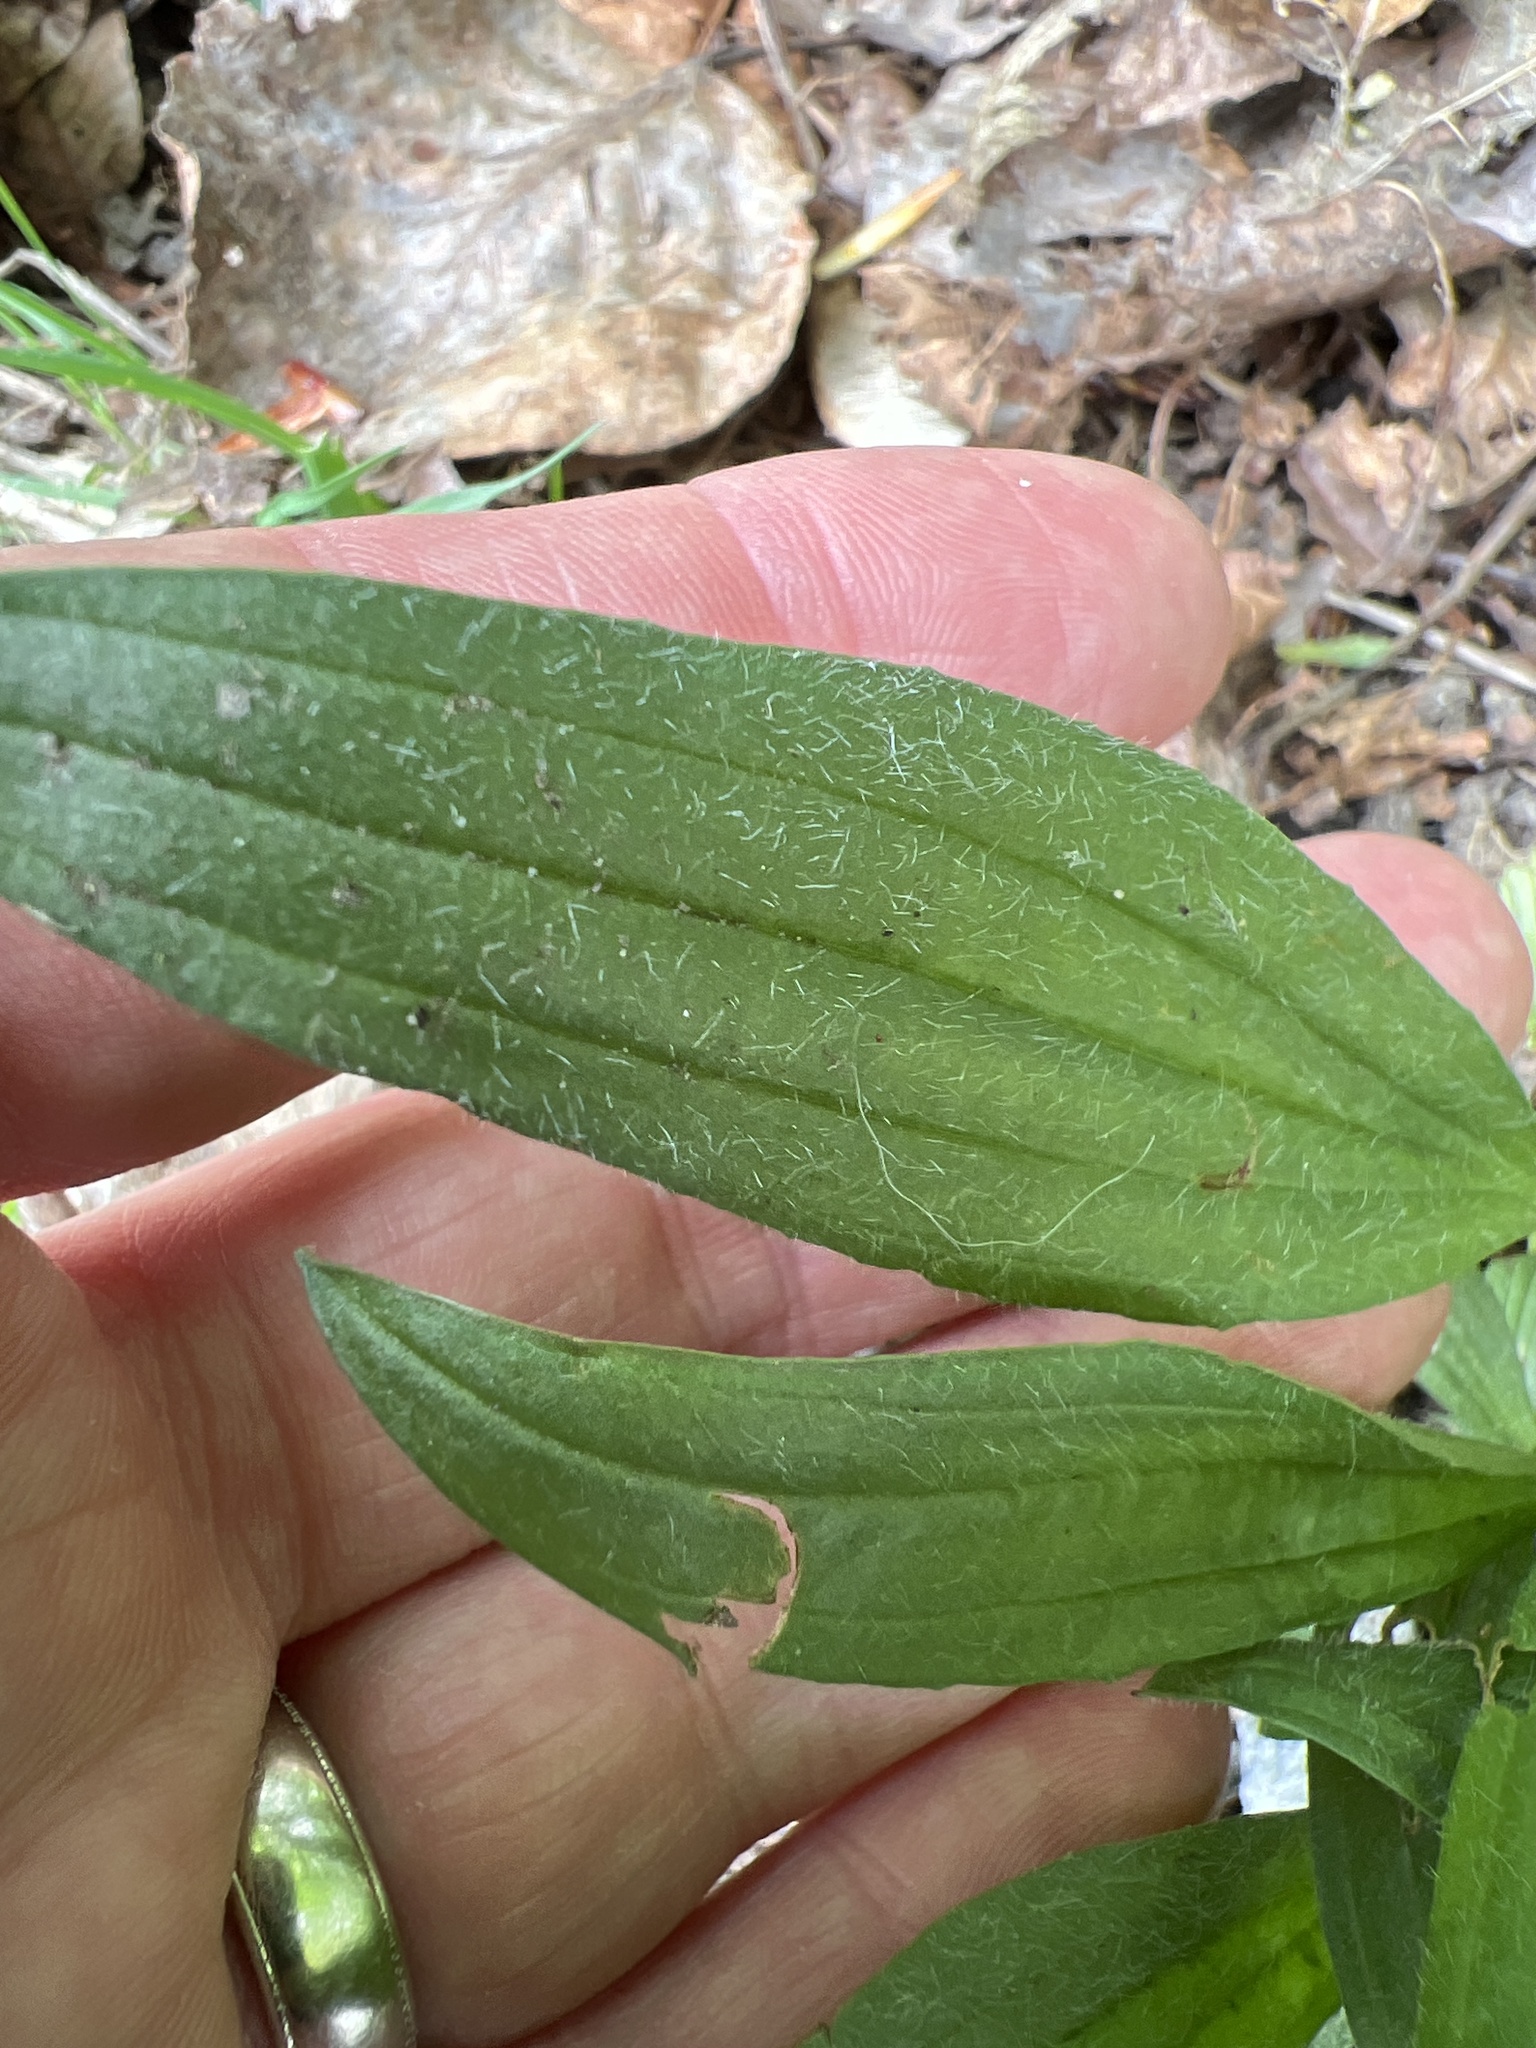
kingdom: Plantae
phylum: Tracheophyta
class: Magnoliopsida
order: Lamiales
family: Plantaginaceae
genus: Plantago
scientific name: Plantago lanceolata
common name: Ribwort plantain
